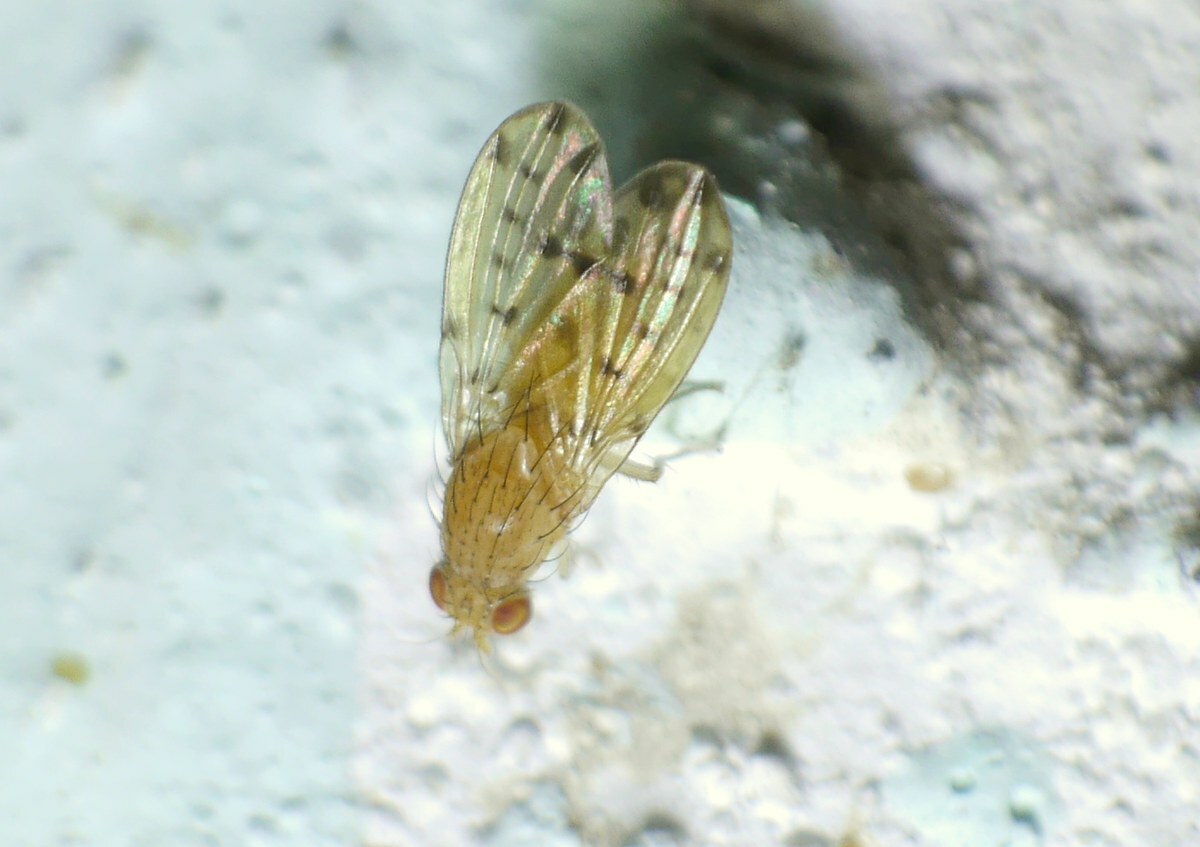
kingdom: Animalia
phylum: Arthropoda
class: Insecta
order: Diptera
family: Lauxaniidae
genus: Eusapromyza
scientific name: Eusapromyza multipunctata
